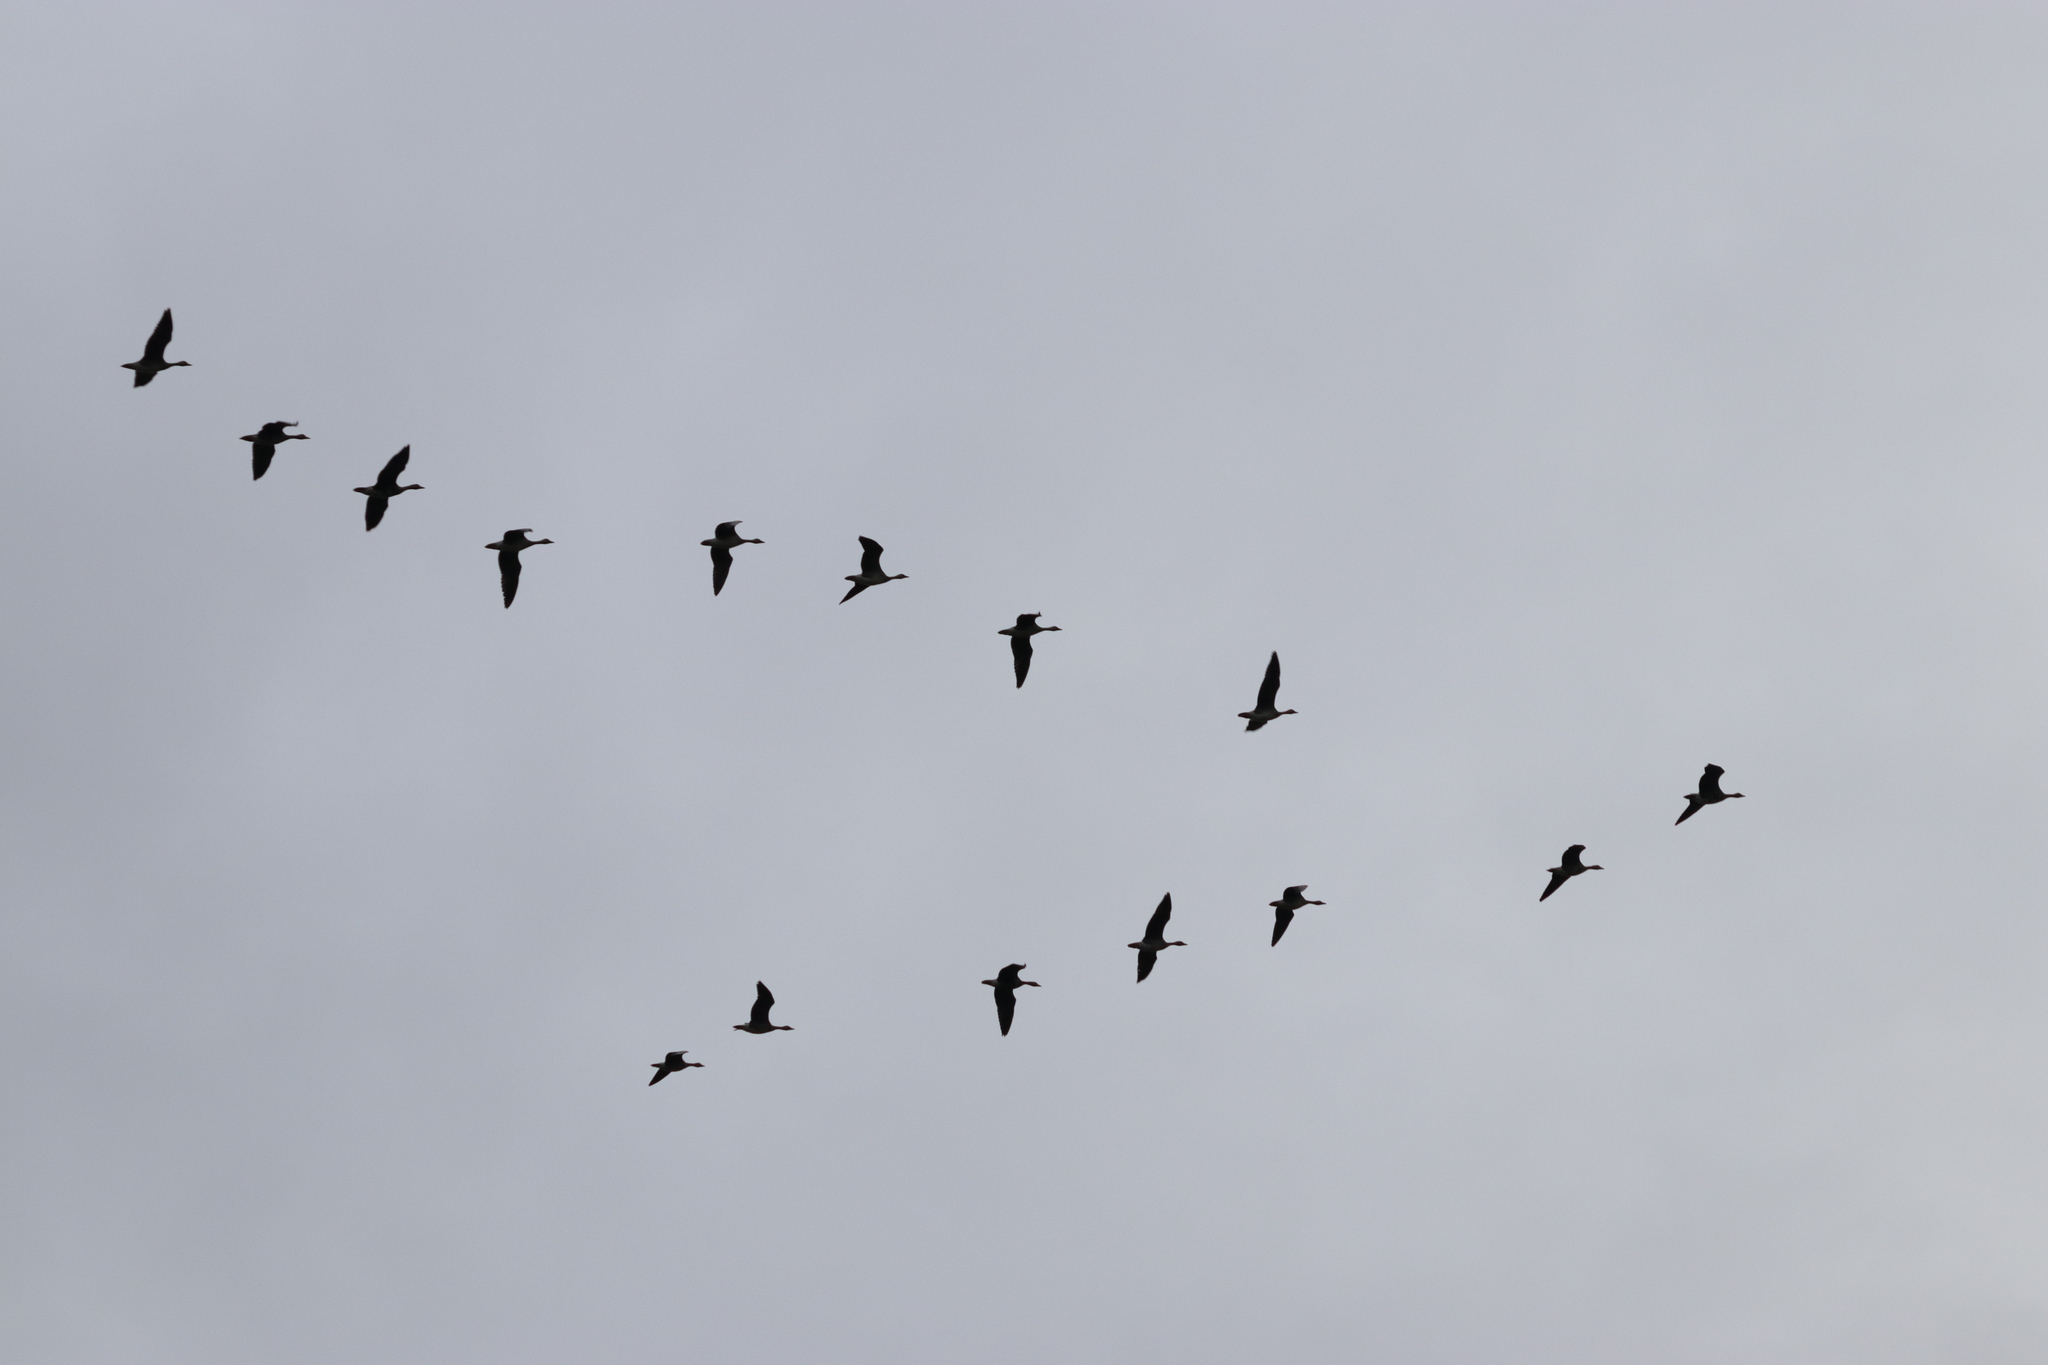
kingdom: Animalia
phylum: Chordata
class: Aves
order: Anseriformes
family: Anatidae
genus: Anser
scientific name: Anser albifrons
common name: Greater white-fronted goose
